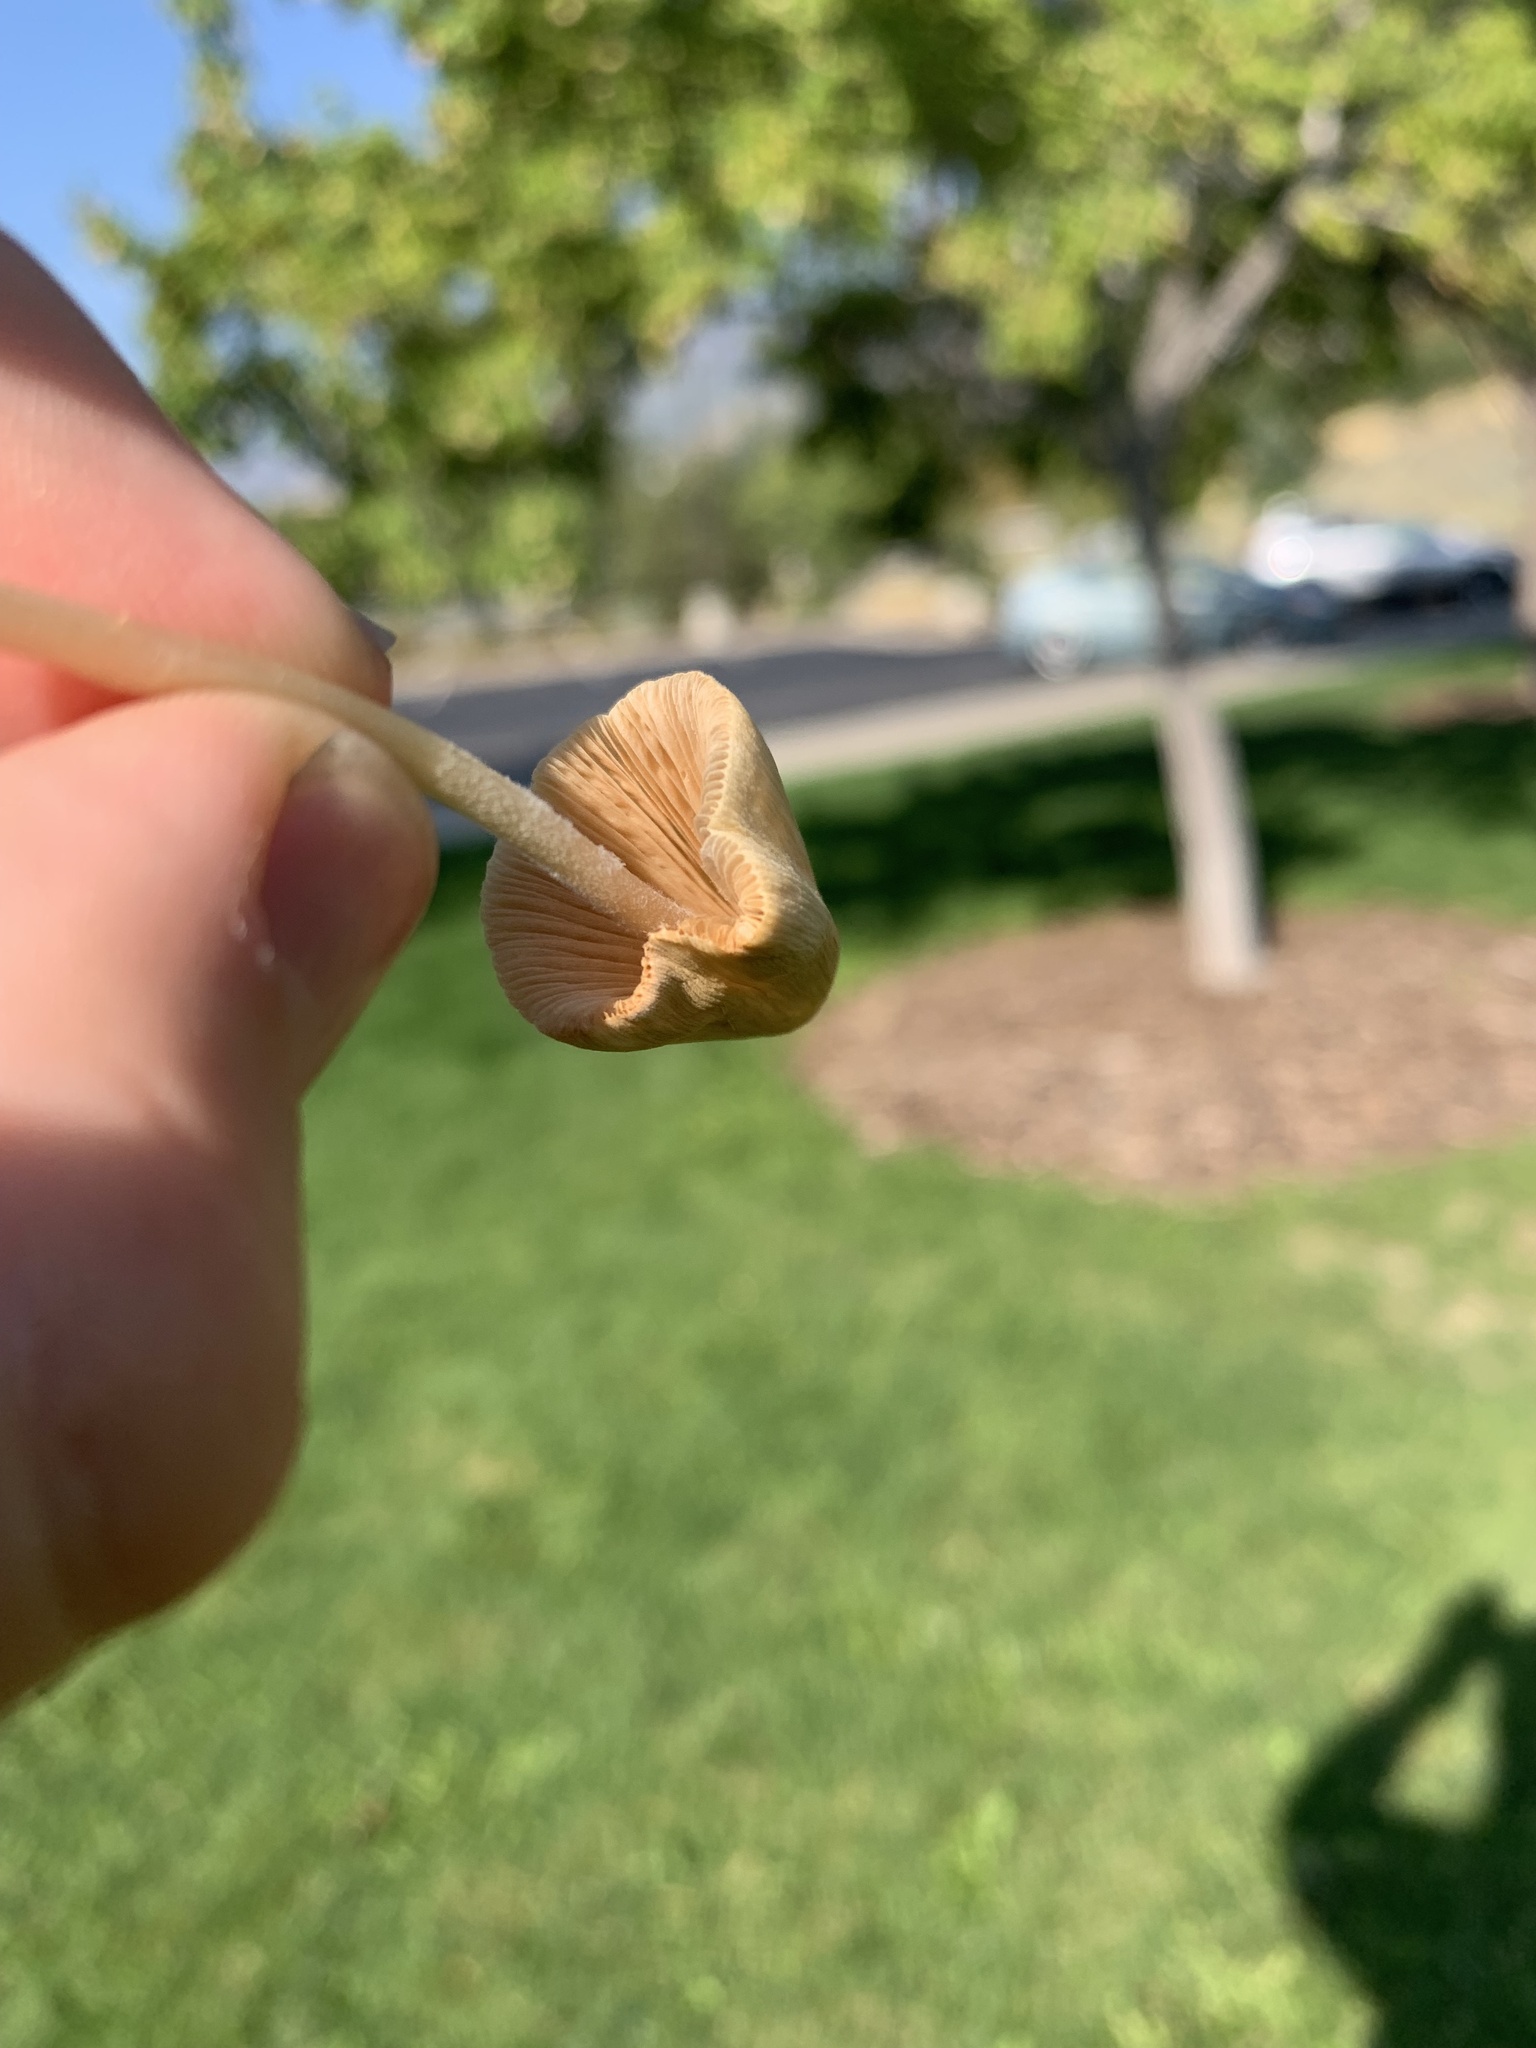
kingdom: Fungi
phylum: Basidiomycota
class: Agaricomycetes
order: Agaricales
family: Bolbitiaceae
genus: Conocybe
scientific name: Conocybe apala
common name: Milky conecap
